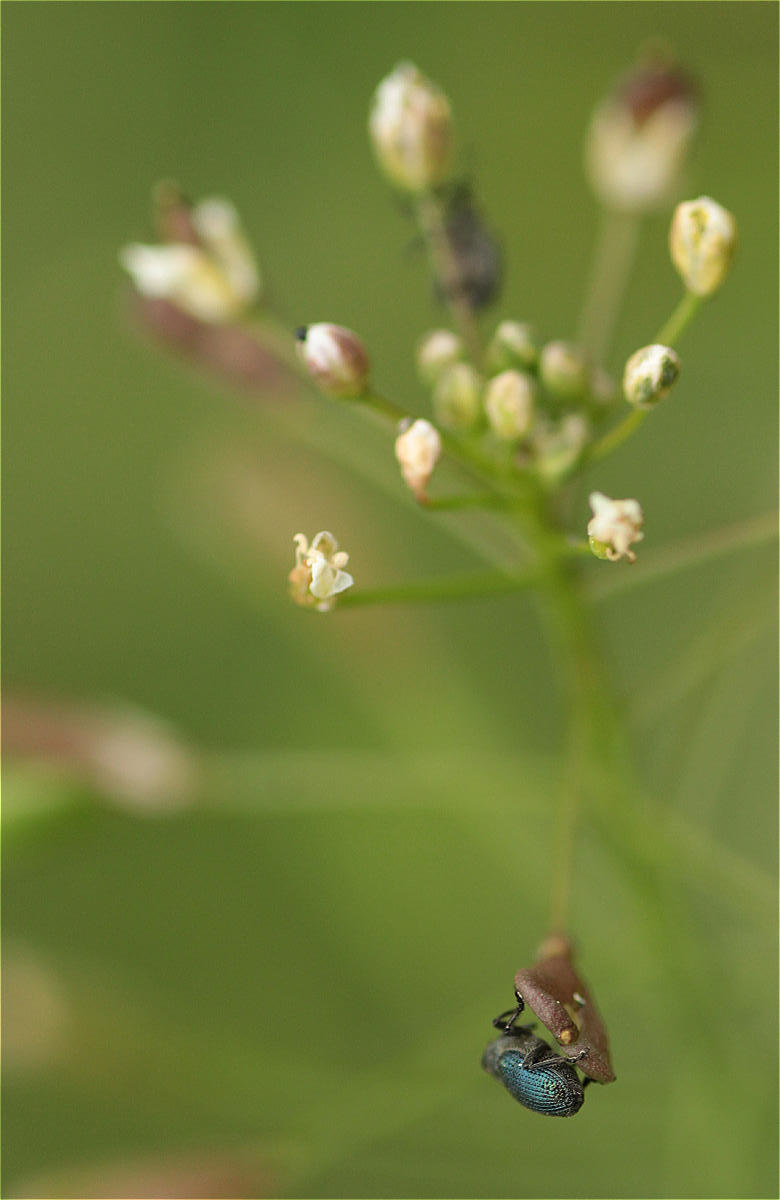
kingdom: Animalia
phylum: Arthropoda
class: Insecta
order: Coleoptera
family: Curculionidae
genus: Ceutorhynchus
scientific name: Ceutorhynchus erysimi
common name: Weevil
